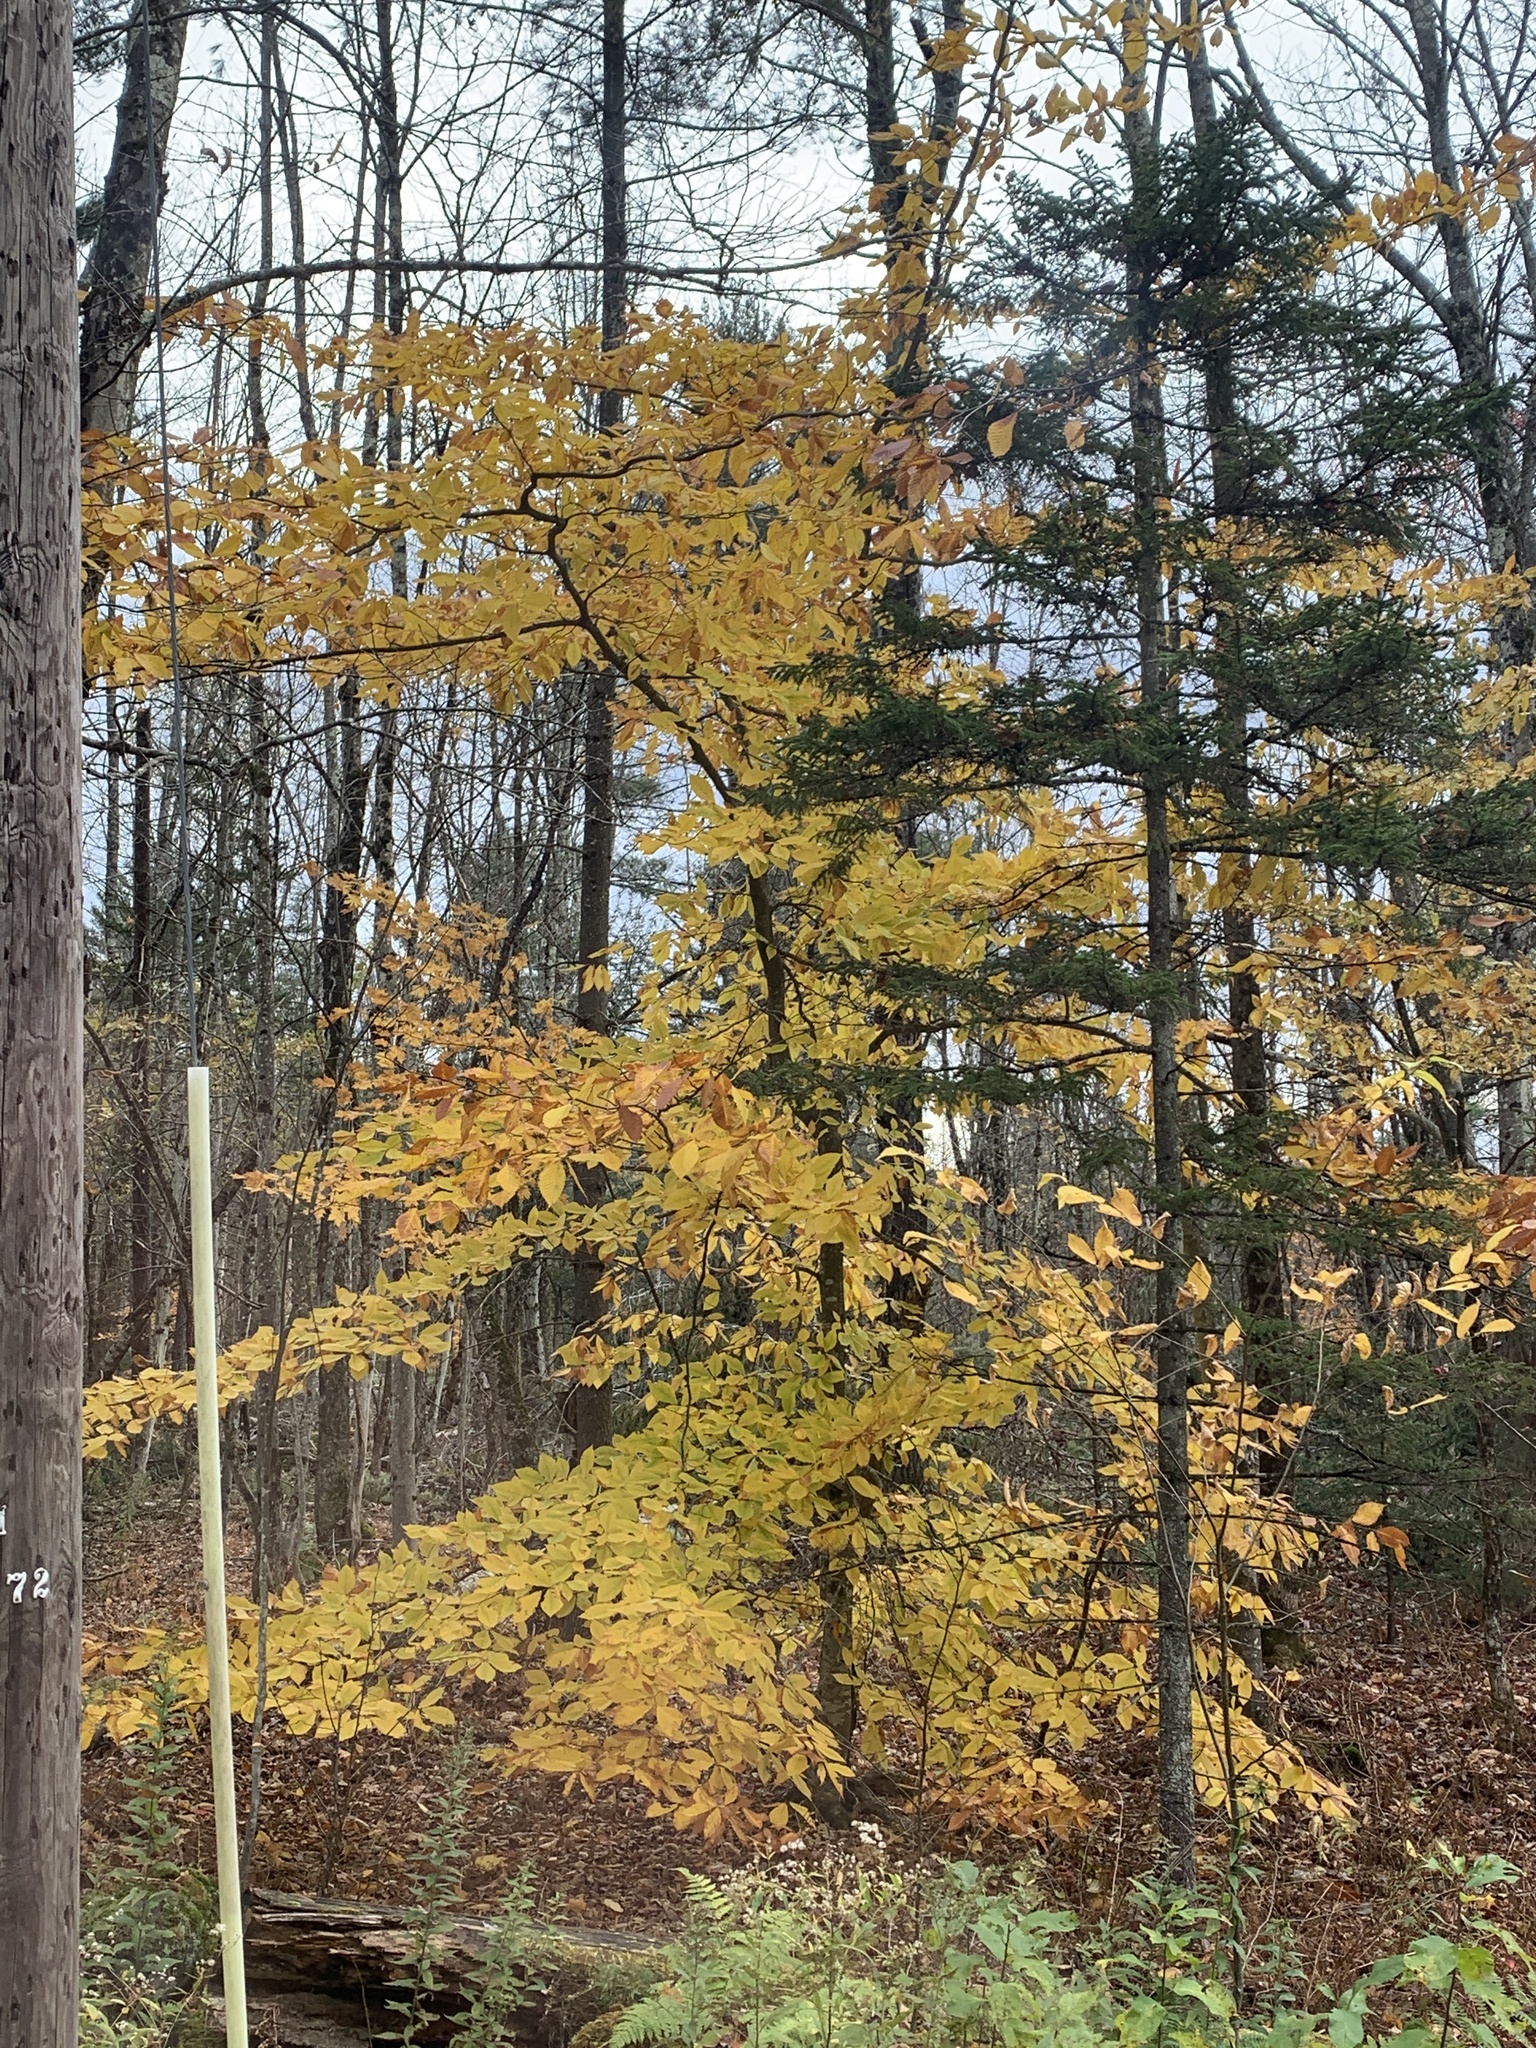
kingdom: Plantae
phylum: Tracheophyta
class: Magnoliopsida
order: Fagales
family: Fagaceae
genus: Fagus
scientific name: Fagus grandifolia
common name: American beech
